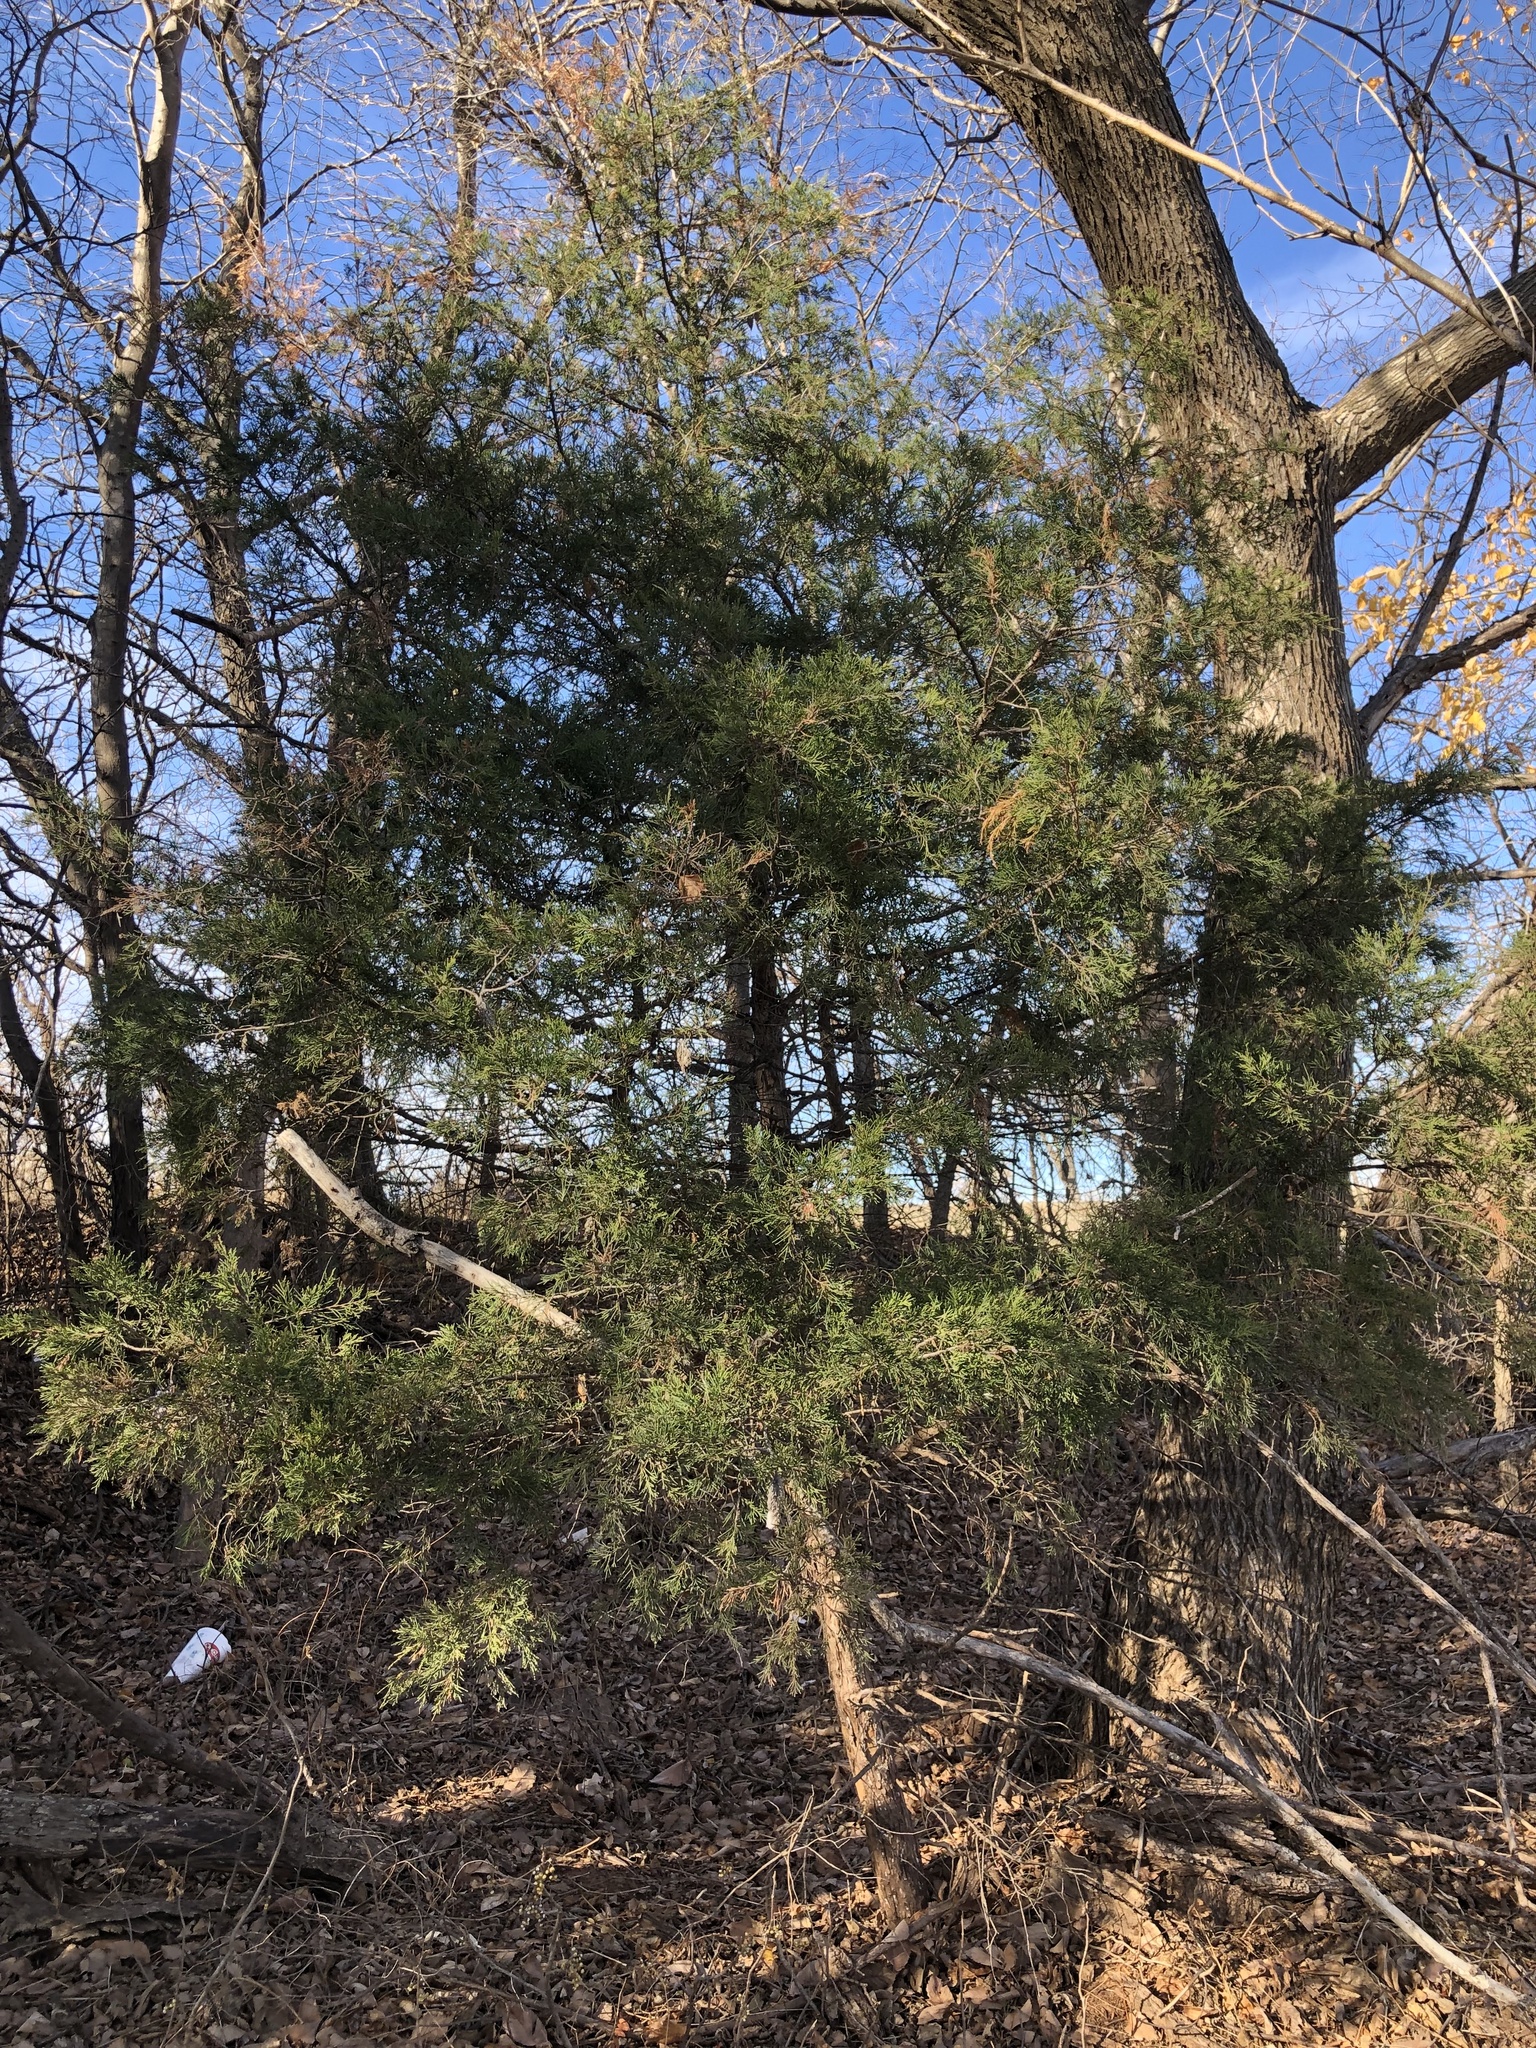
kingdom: Plantae
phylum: Tracheophyta
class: Pinopsida
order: Pinales
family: Cupressaceae
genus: Juniperus
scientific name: Juniperus virginiana
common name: Red juniper
